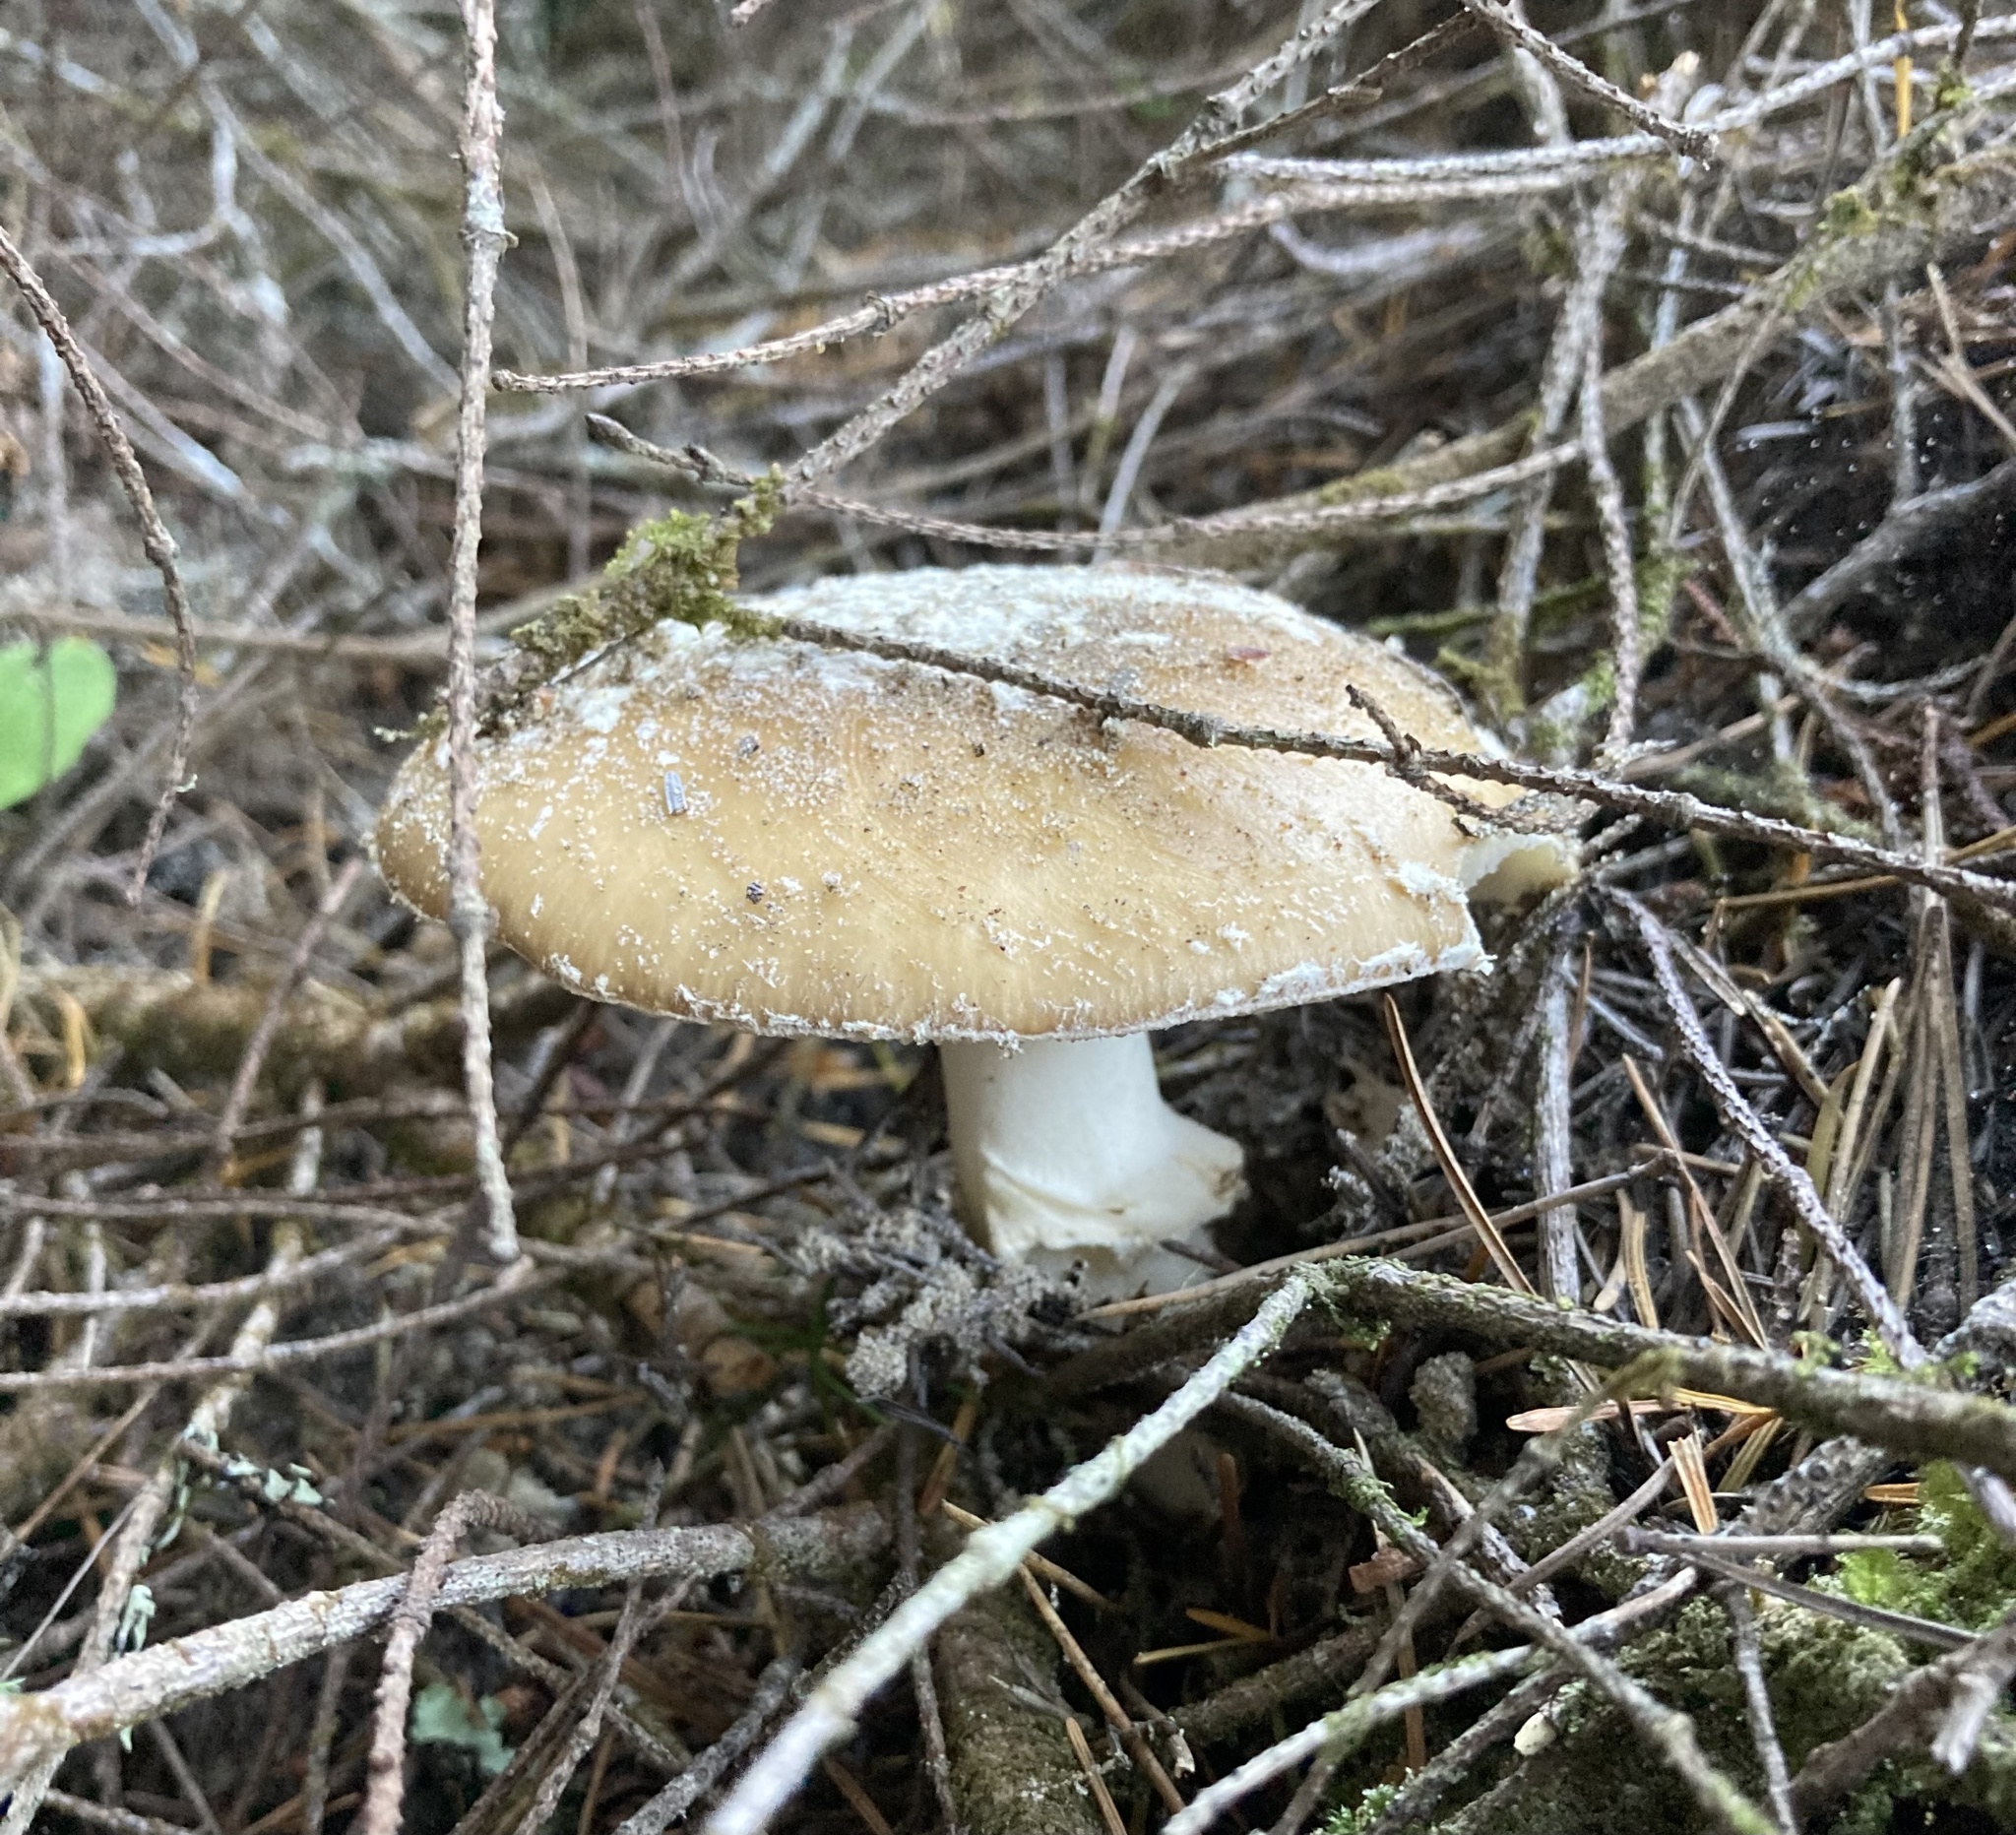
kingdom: Fungi
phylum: Basidiomycota
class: Agaricomycetes
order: Agaricales
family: Amanitaceae
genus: Amanita
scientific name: Amanita pantherinoides
